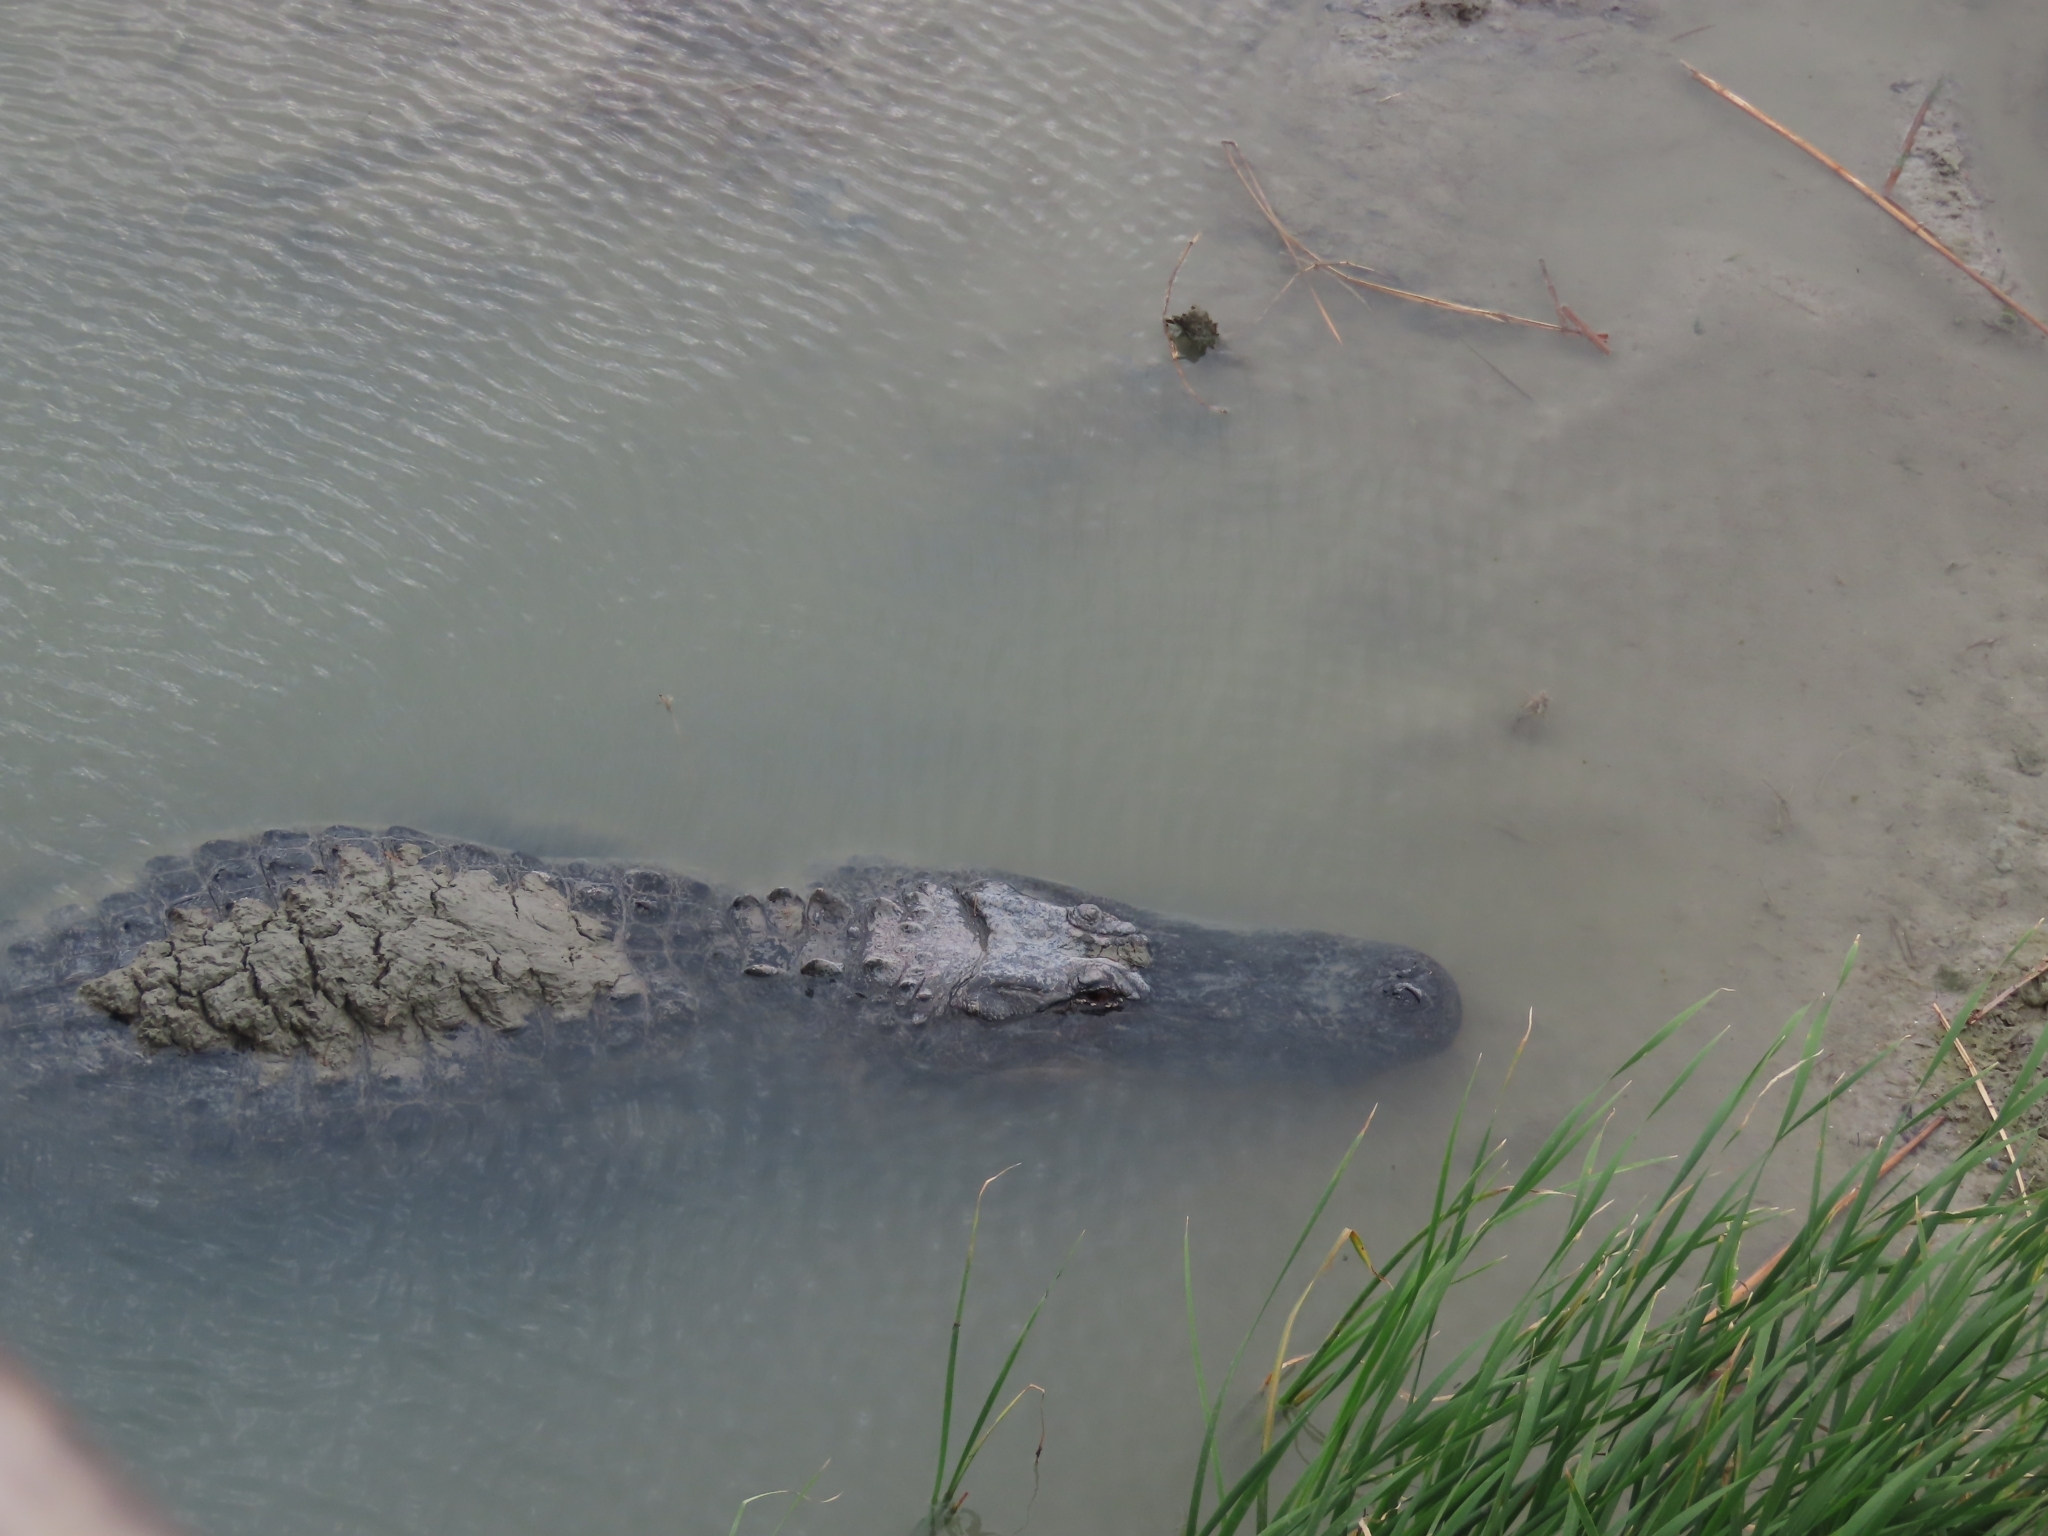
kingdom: Animalia
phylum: Chordata
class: Crocodylia
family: Alligatoridae
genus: Alligator
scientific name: Alligator mississippiensis
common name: American alligator
